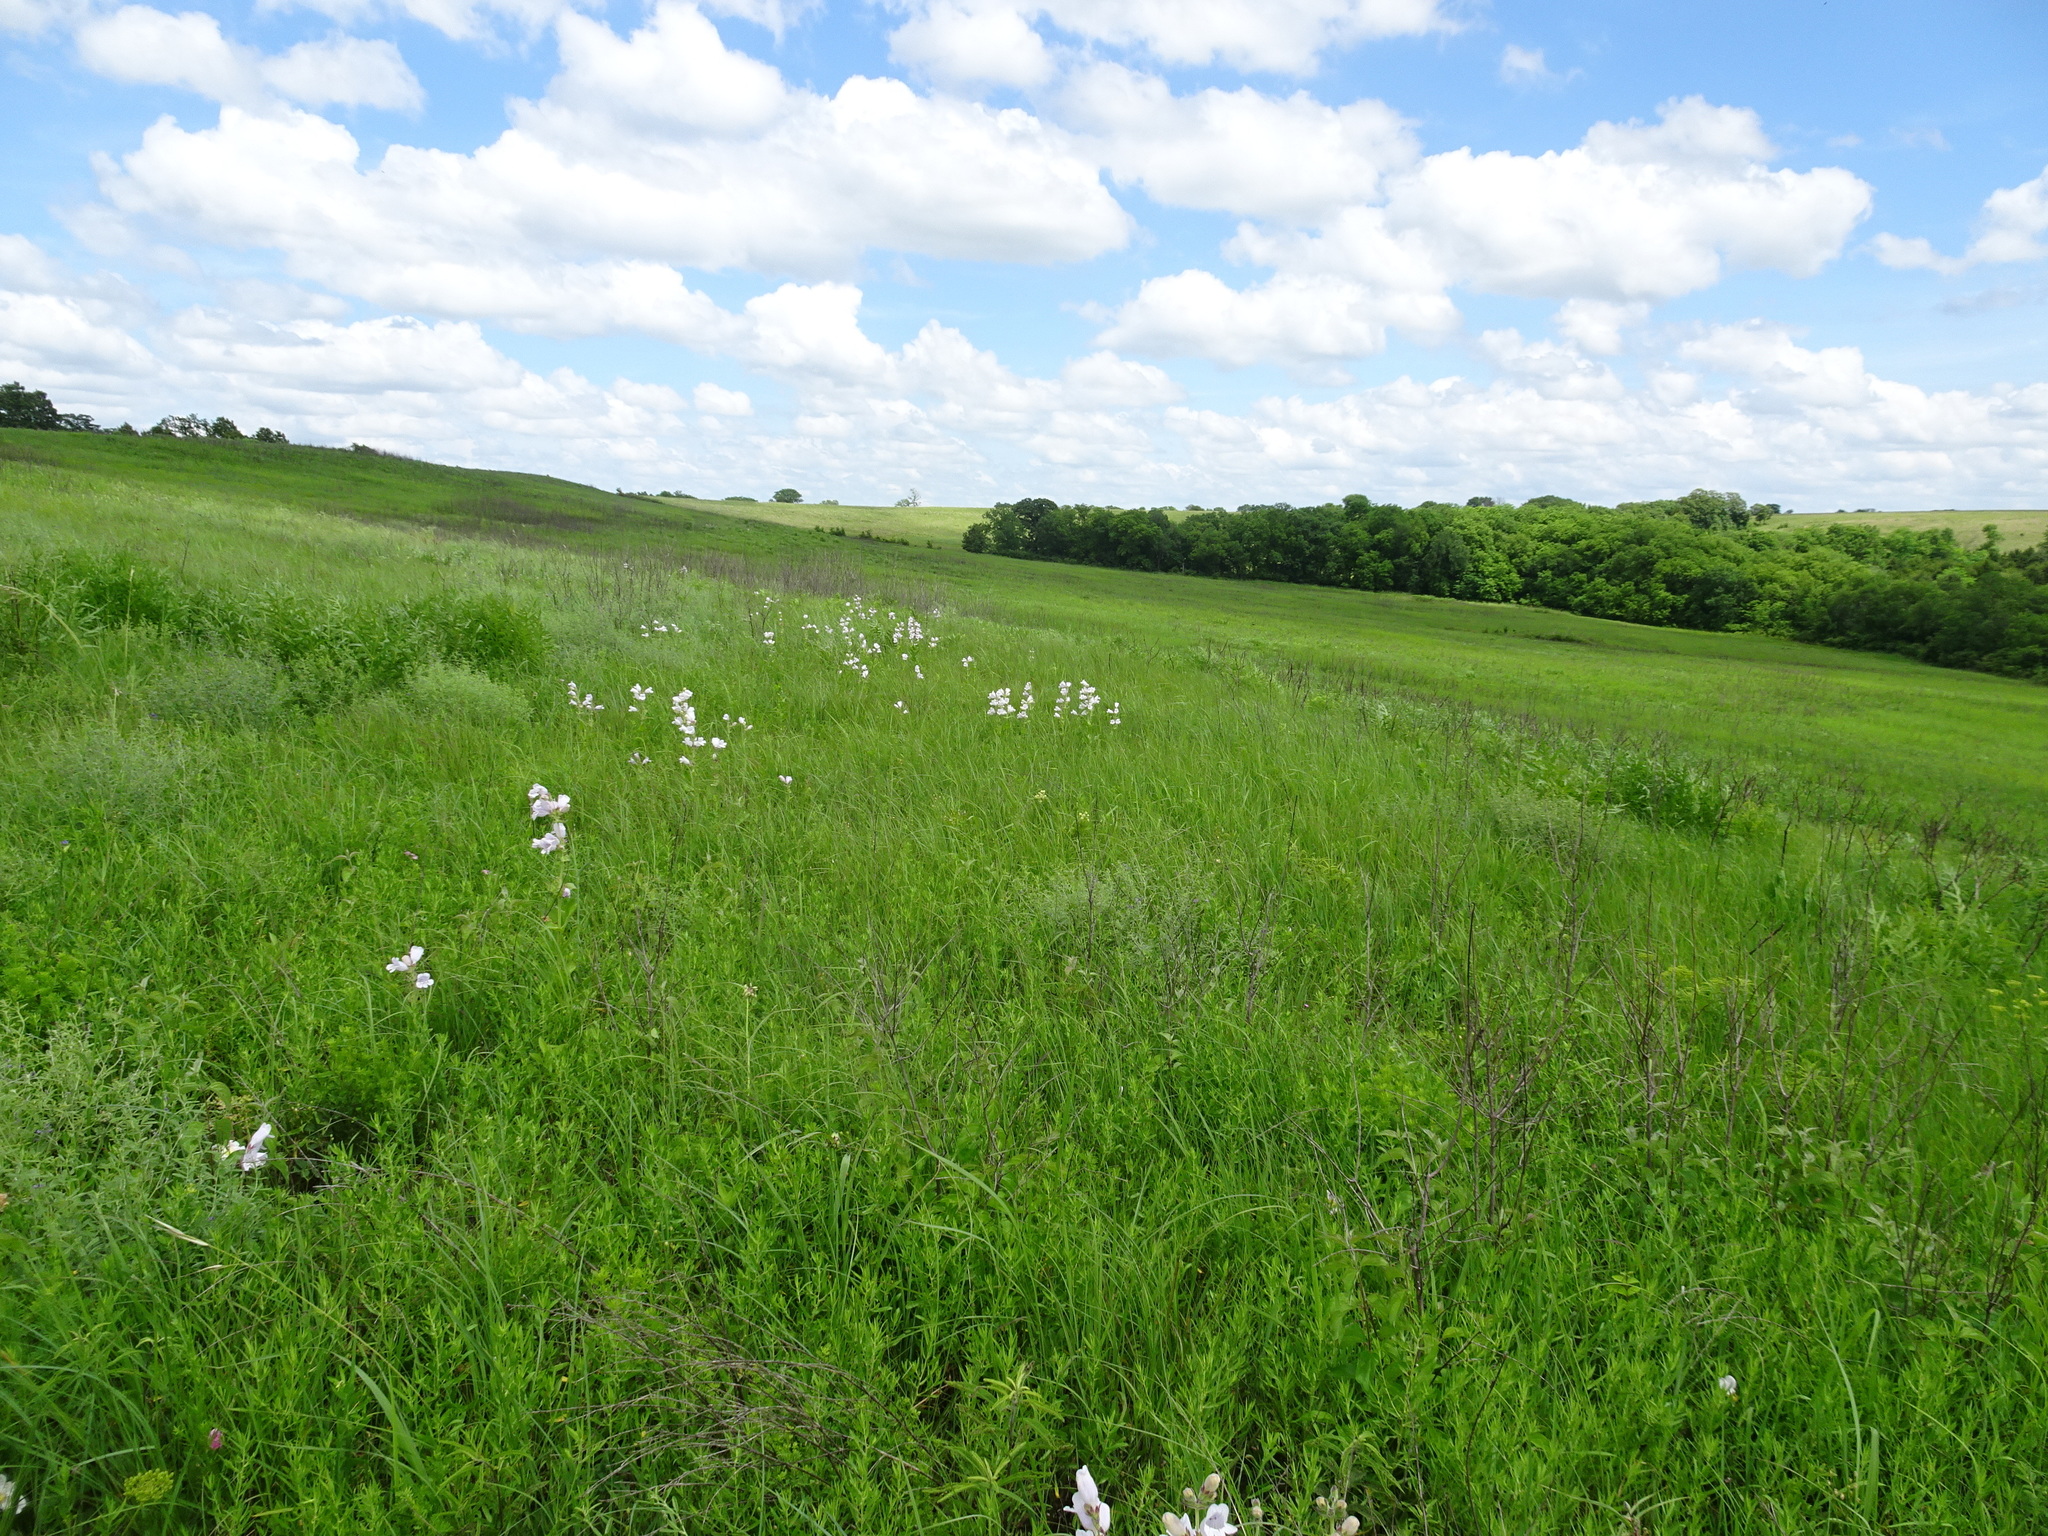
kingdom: Plantae
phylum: Tracheophyta
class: Magnoliopsida
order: Lamiales
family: Plantaginaceae
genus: Penstemon
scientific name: Penstemon cobaea
